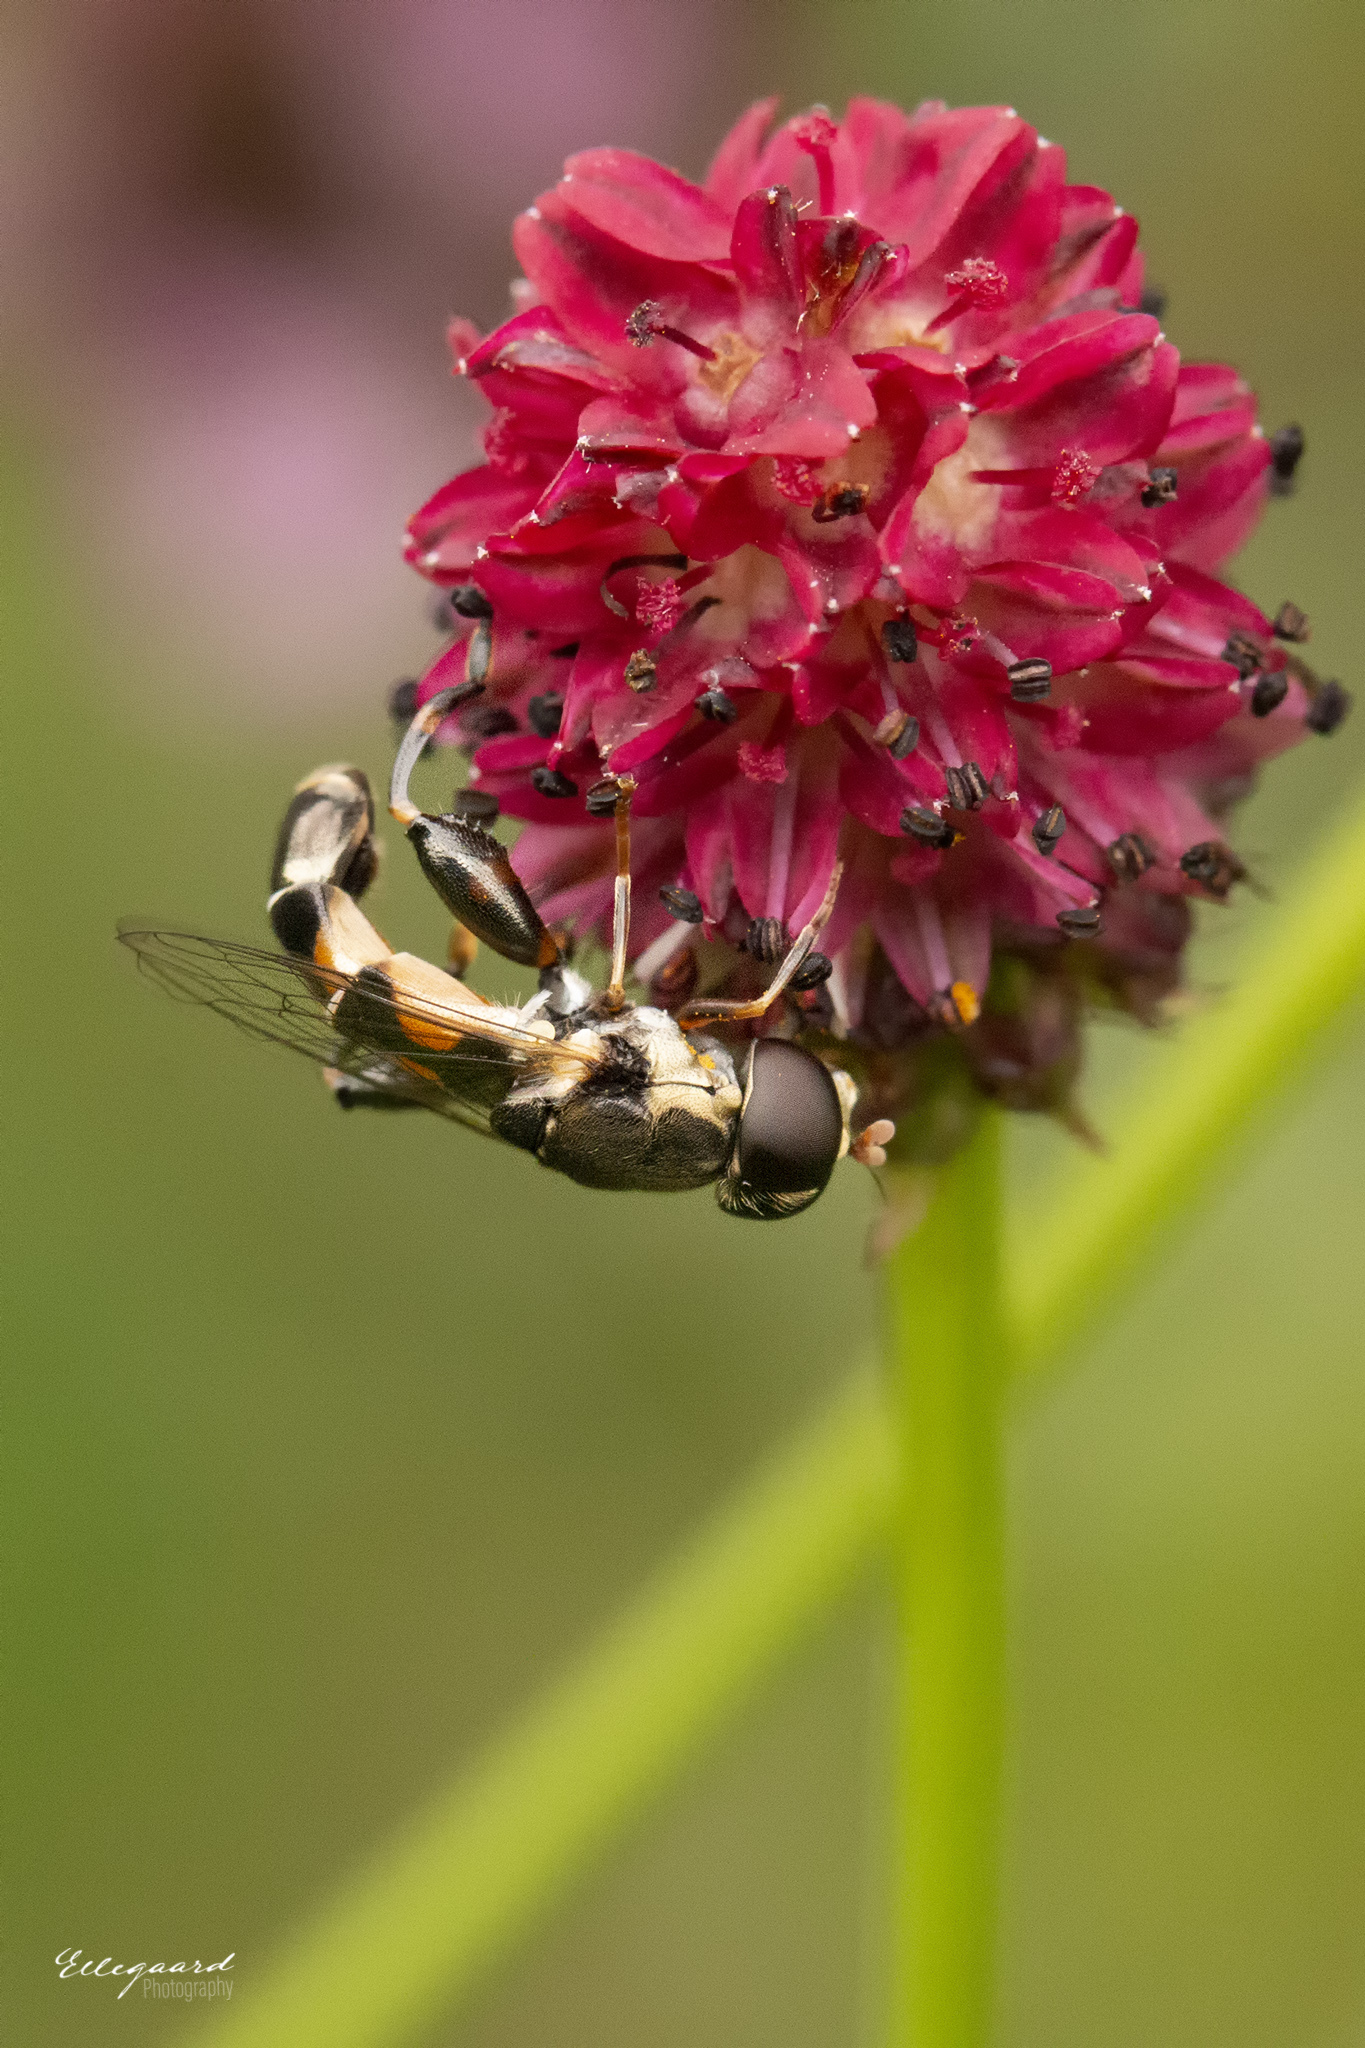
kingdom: Animalia
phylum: Arthropoda
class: Insecta
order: Diptera
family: Syrphidae
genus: Syritta
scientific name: Syritta pipiens
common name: Hover fly
